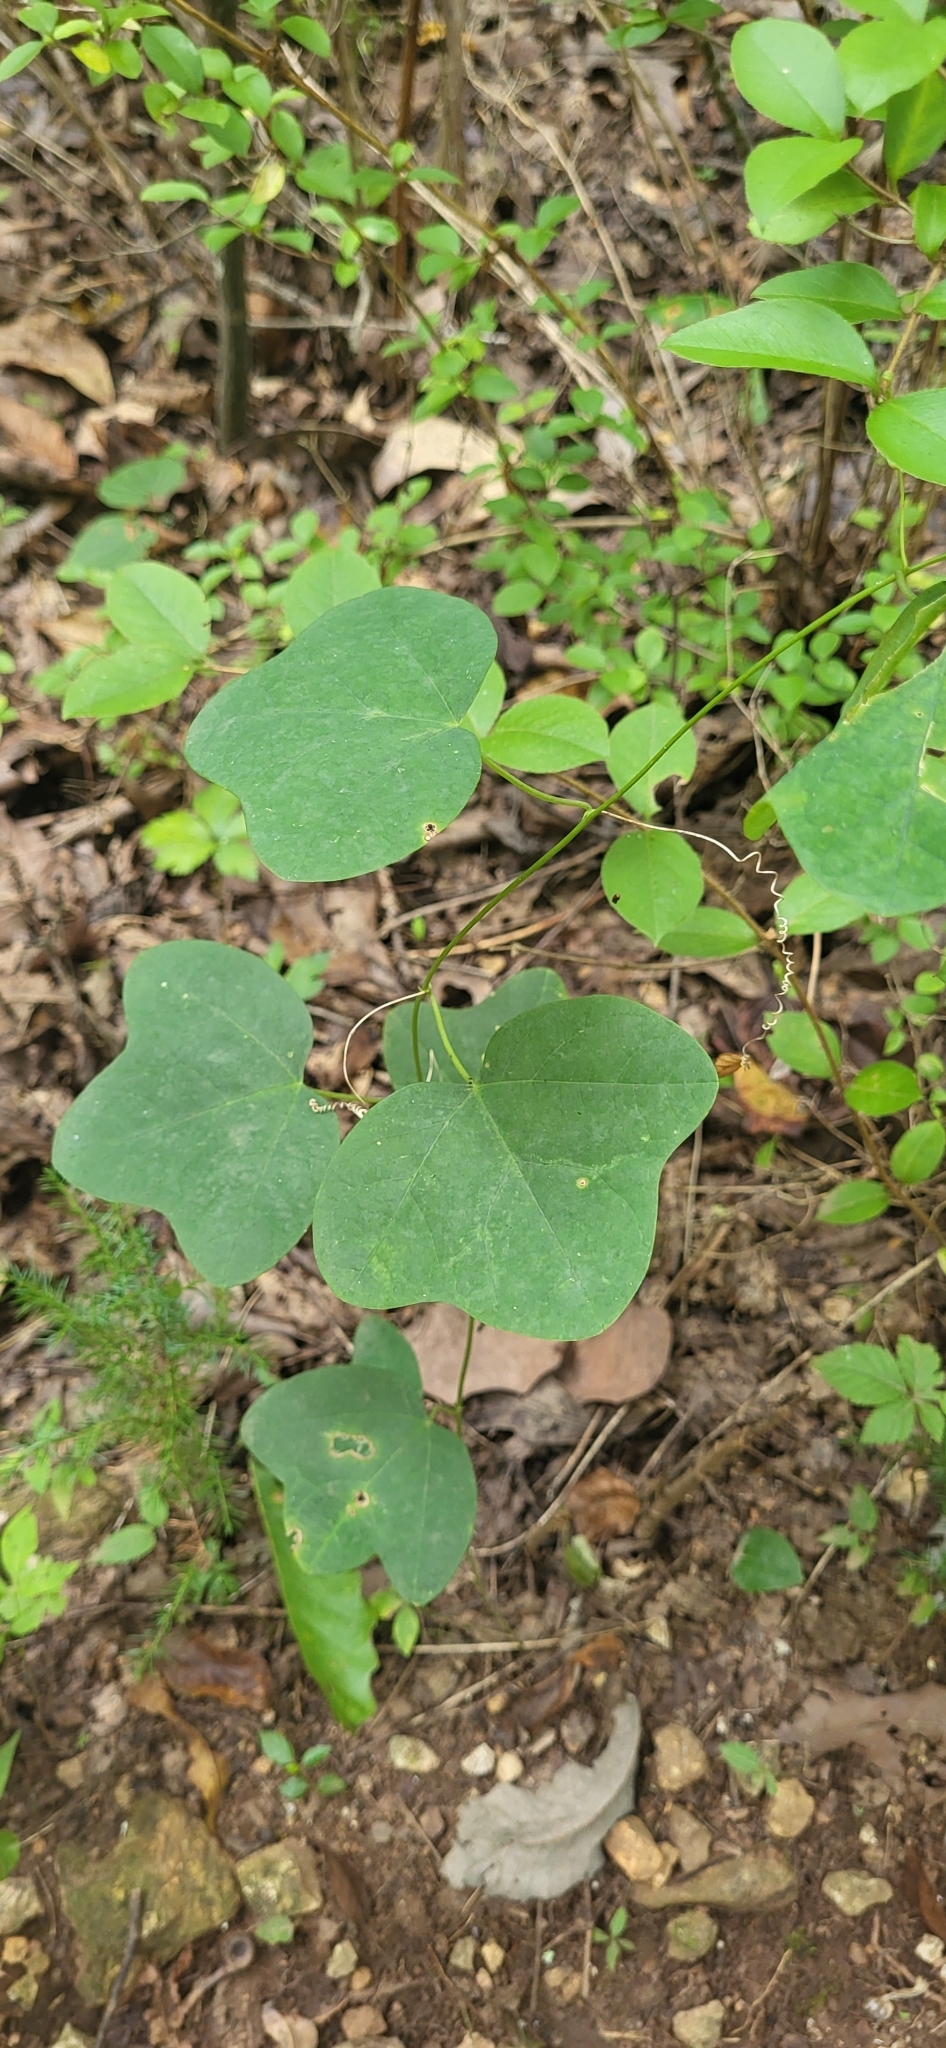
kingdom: Plantae
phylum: Tracheophyta
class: Magnoliopsida
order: Malpighiales
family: Passifloraceae
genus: Passiflora
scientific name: Passiflora lutea
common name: Yellow passionflower
